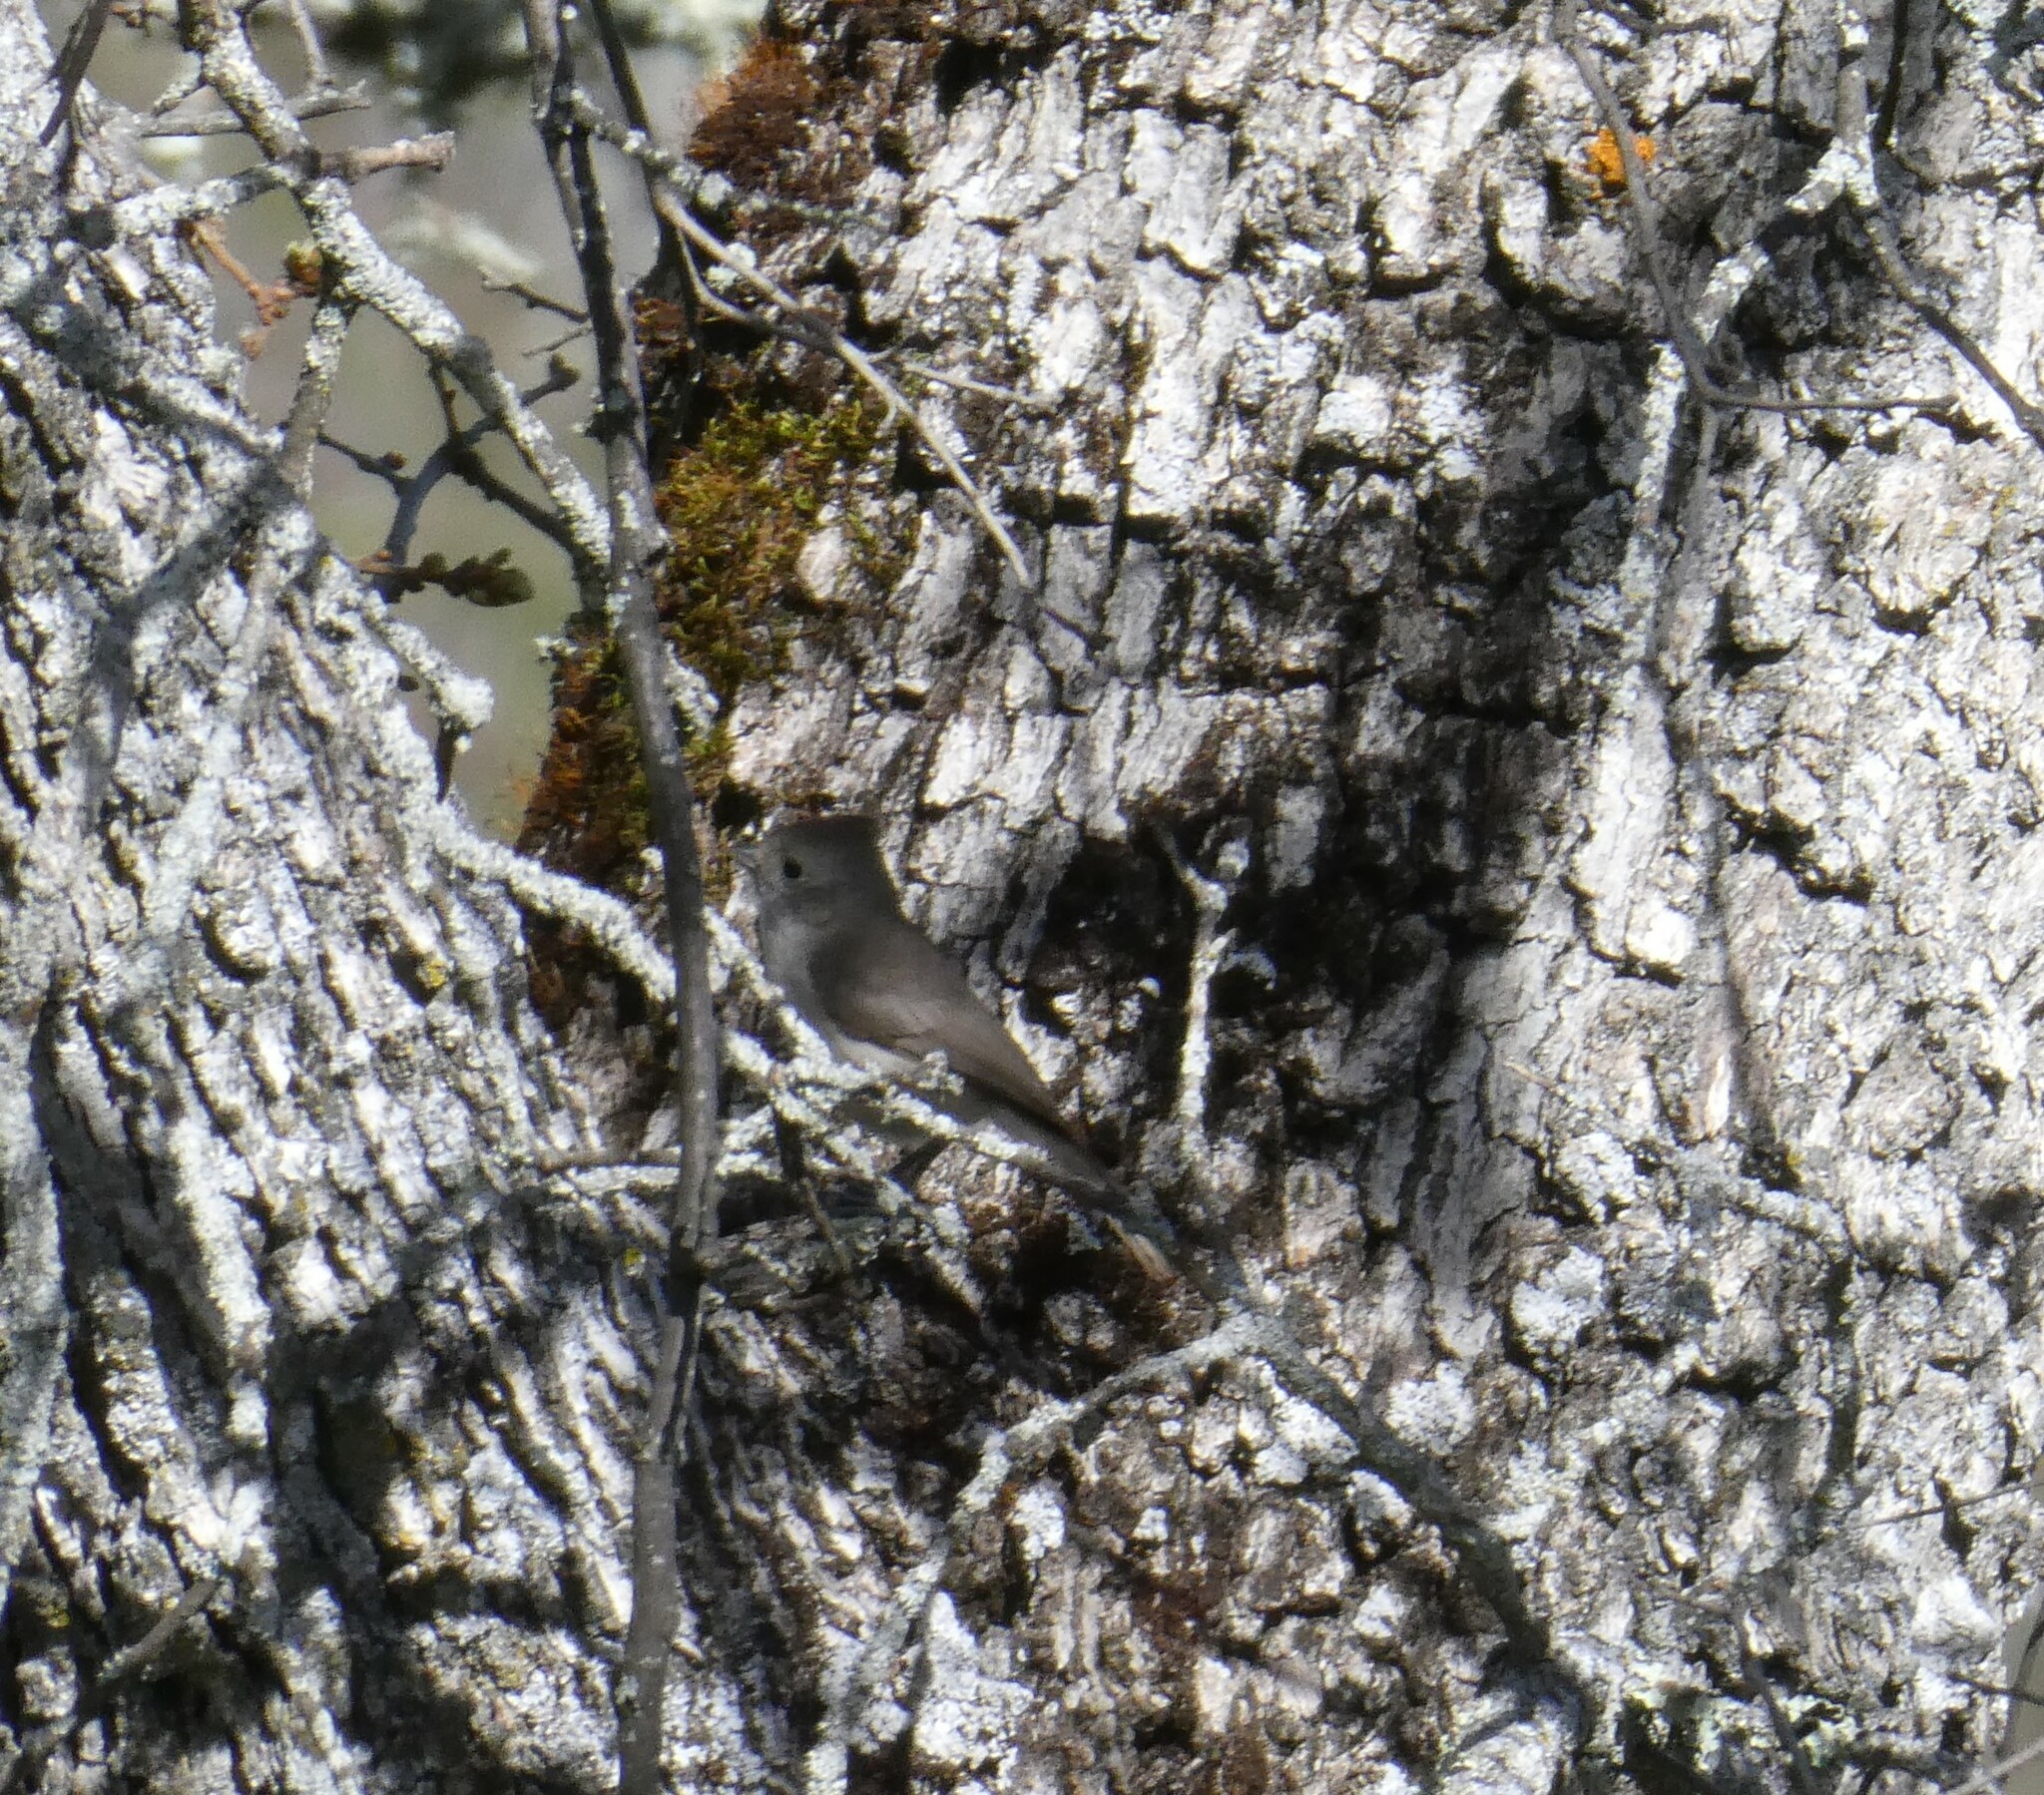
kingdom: Animalia
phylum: Chordata
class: Aves
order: Passeriformes
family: Paridae
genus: Baeolophus
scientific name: Baeolophus inornatus
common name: Oak titmouse
